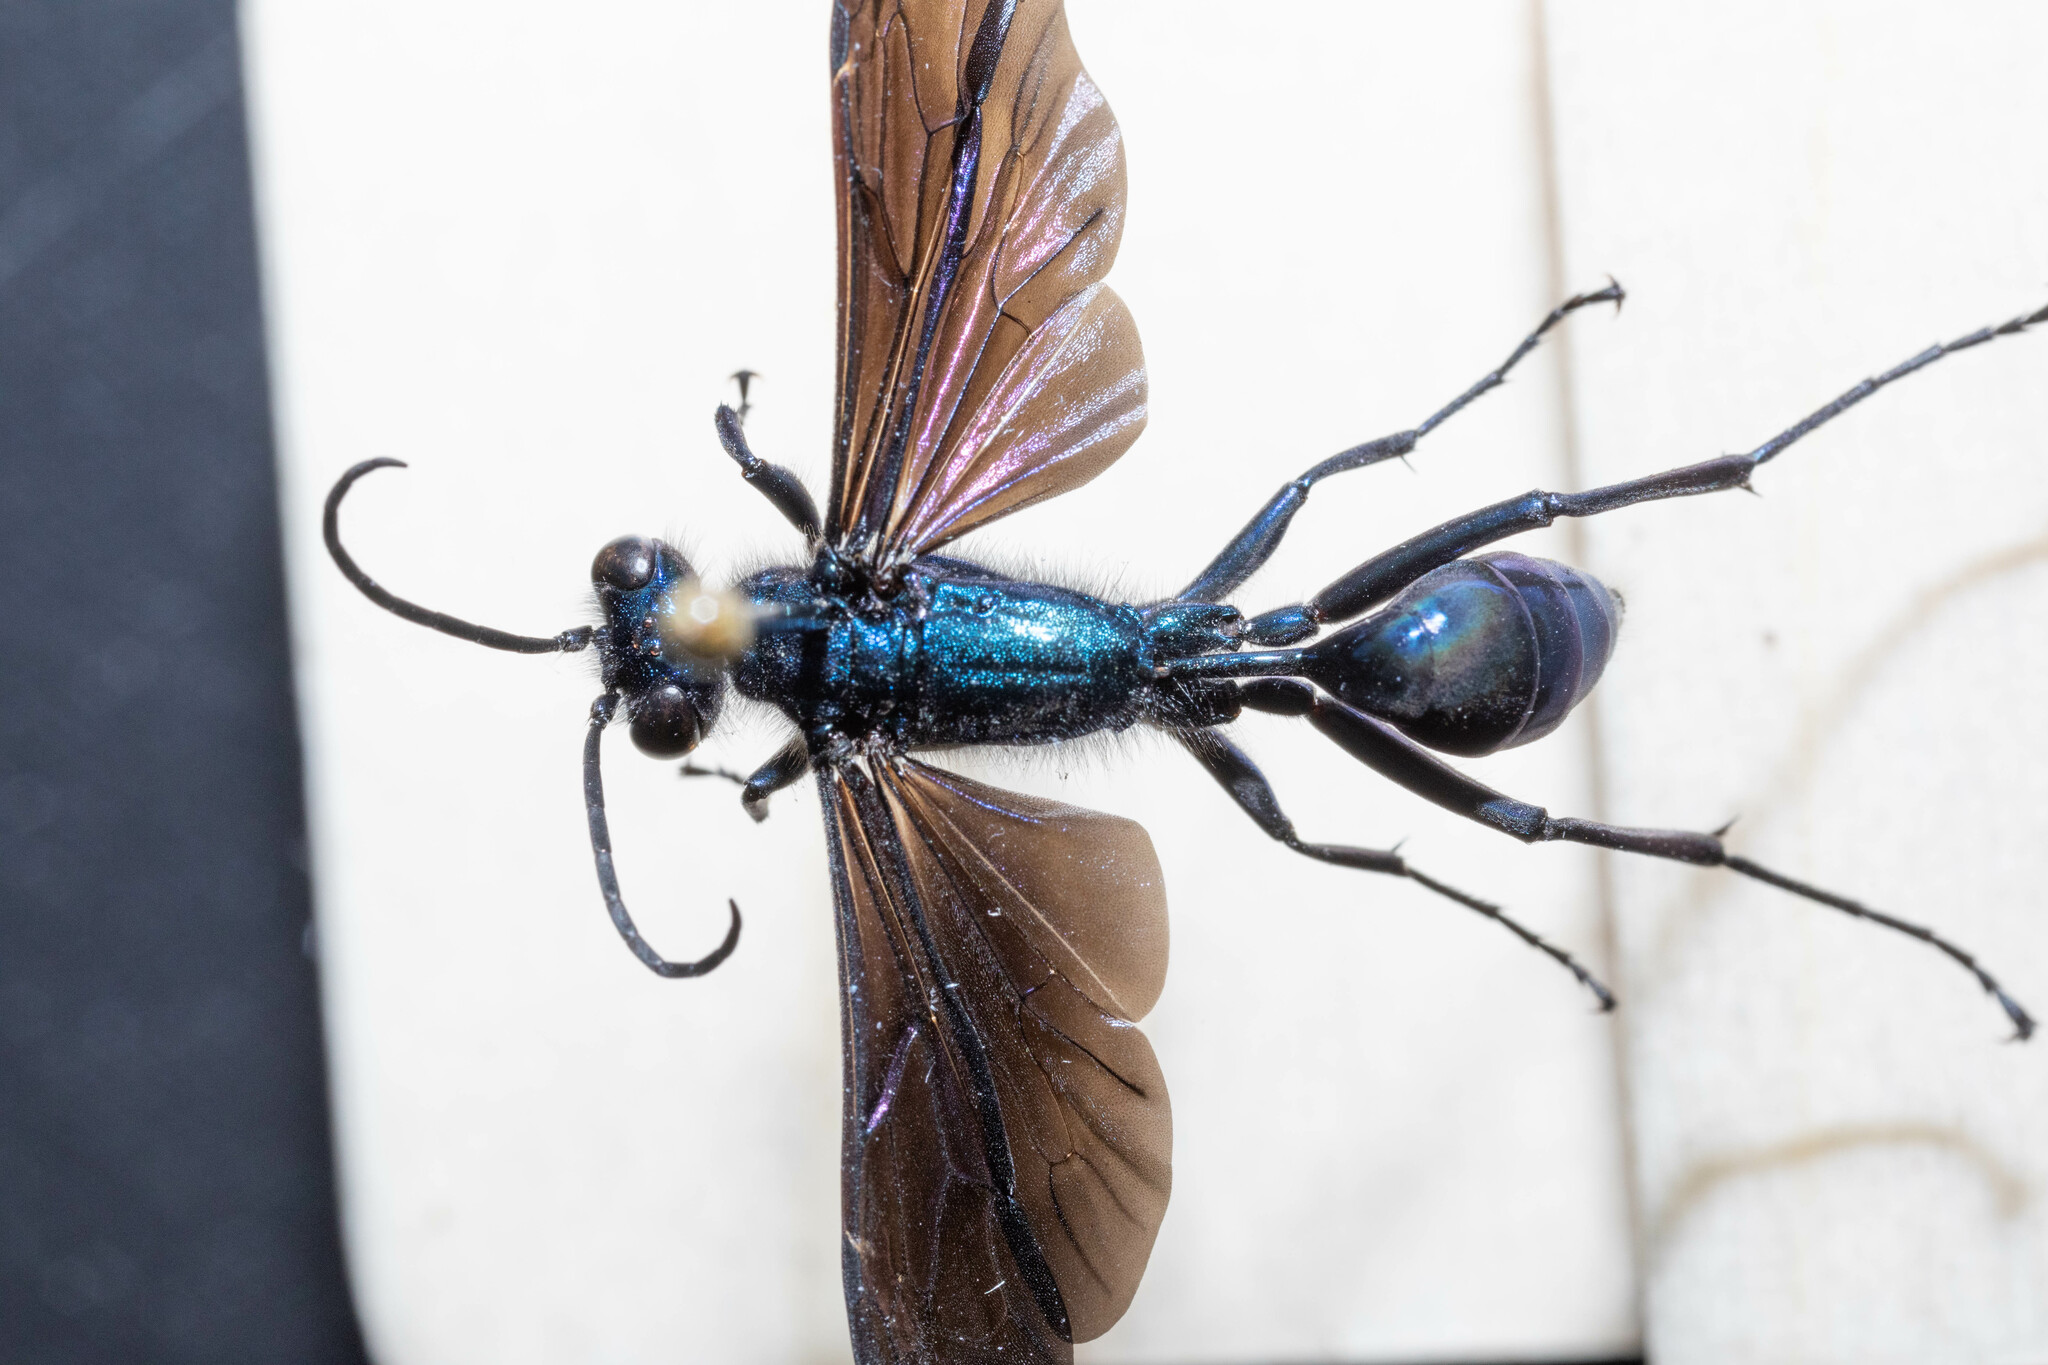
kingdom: Animalia
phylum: Arthropoda
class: Insecta
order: Hymenoptera
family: Sphecidae
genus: Chalybion
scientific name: Chalybion californicum
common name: Mud dauber
